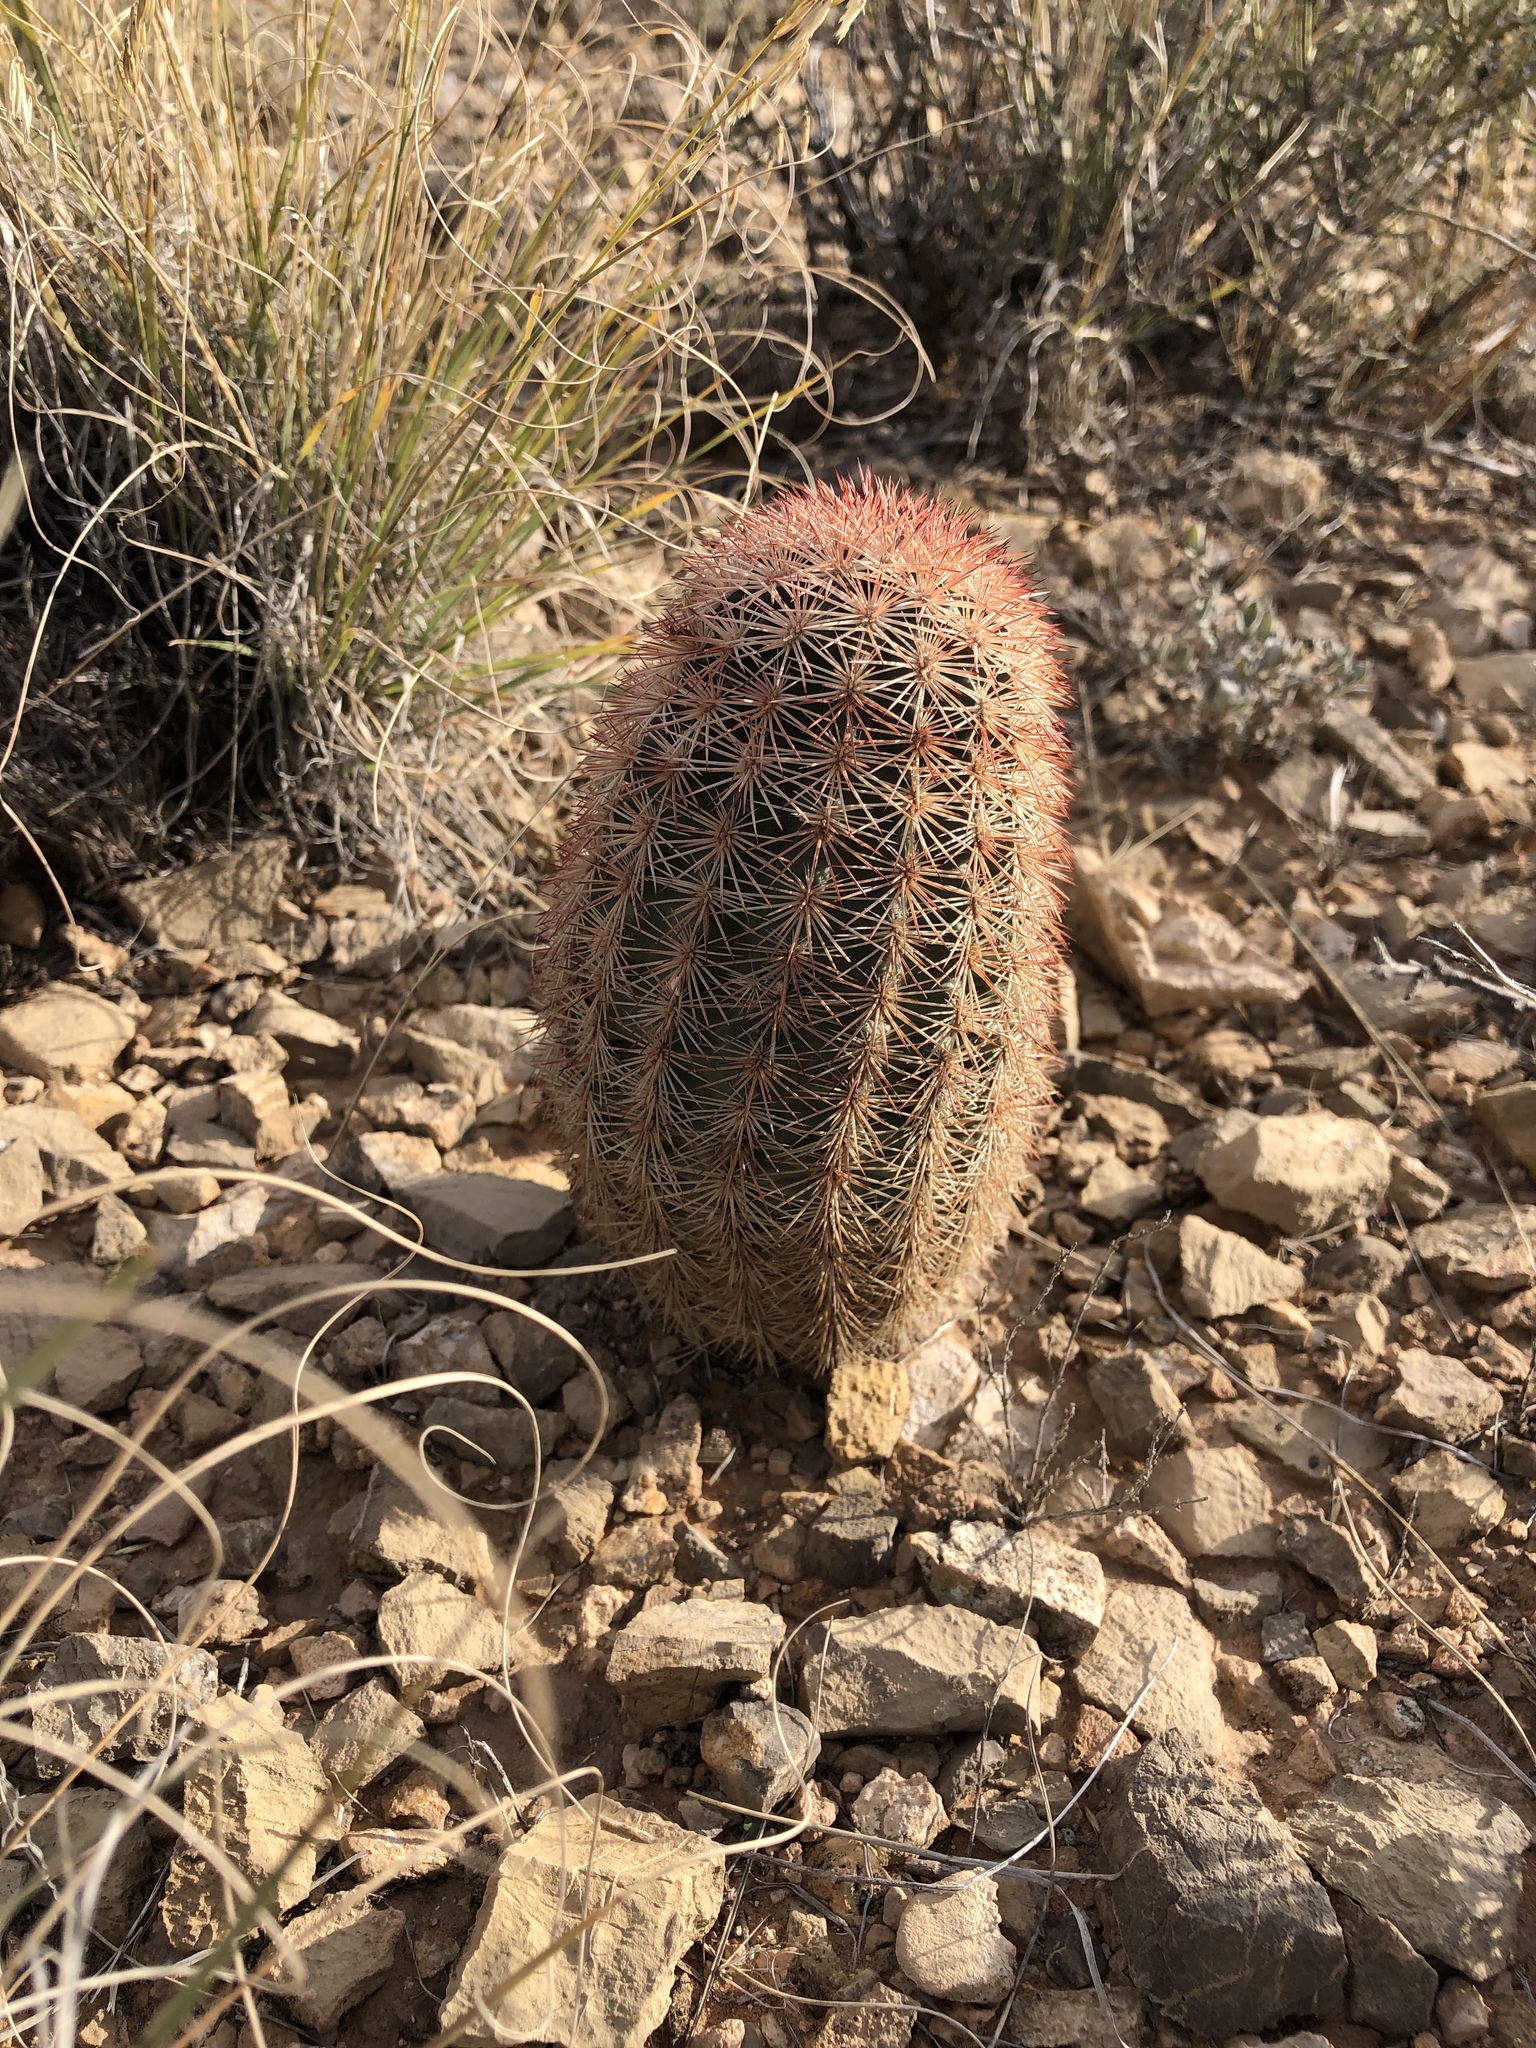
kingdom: Plantae
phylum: Tracheophyta
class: Magnoliopsida
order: Caryophyllales
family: Cactaceae
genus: Echinocereus
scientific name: Echinocereus dasyacanthus
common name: Spiny hedgehog cactus
